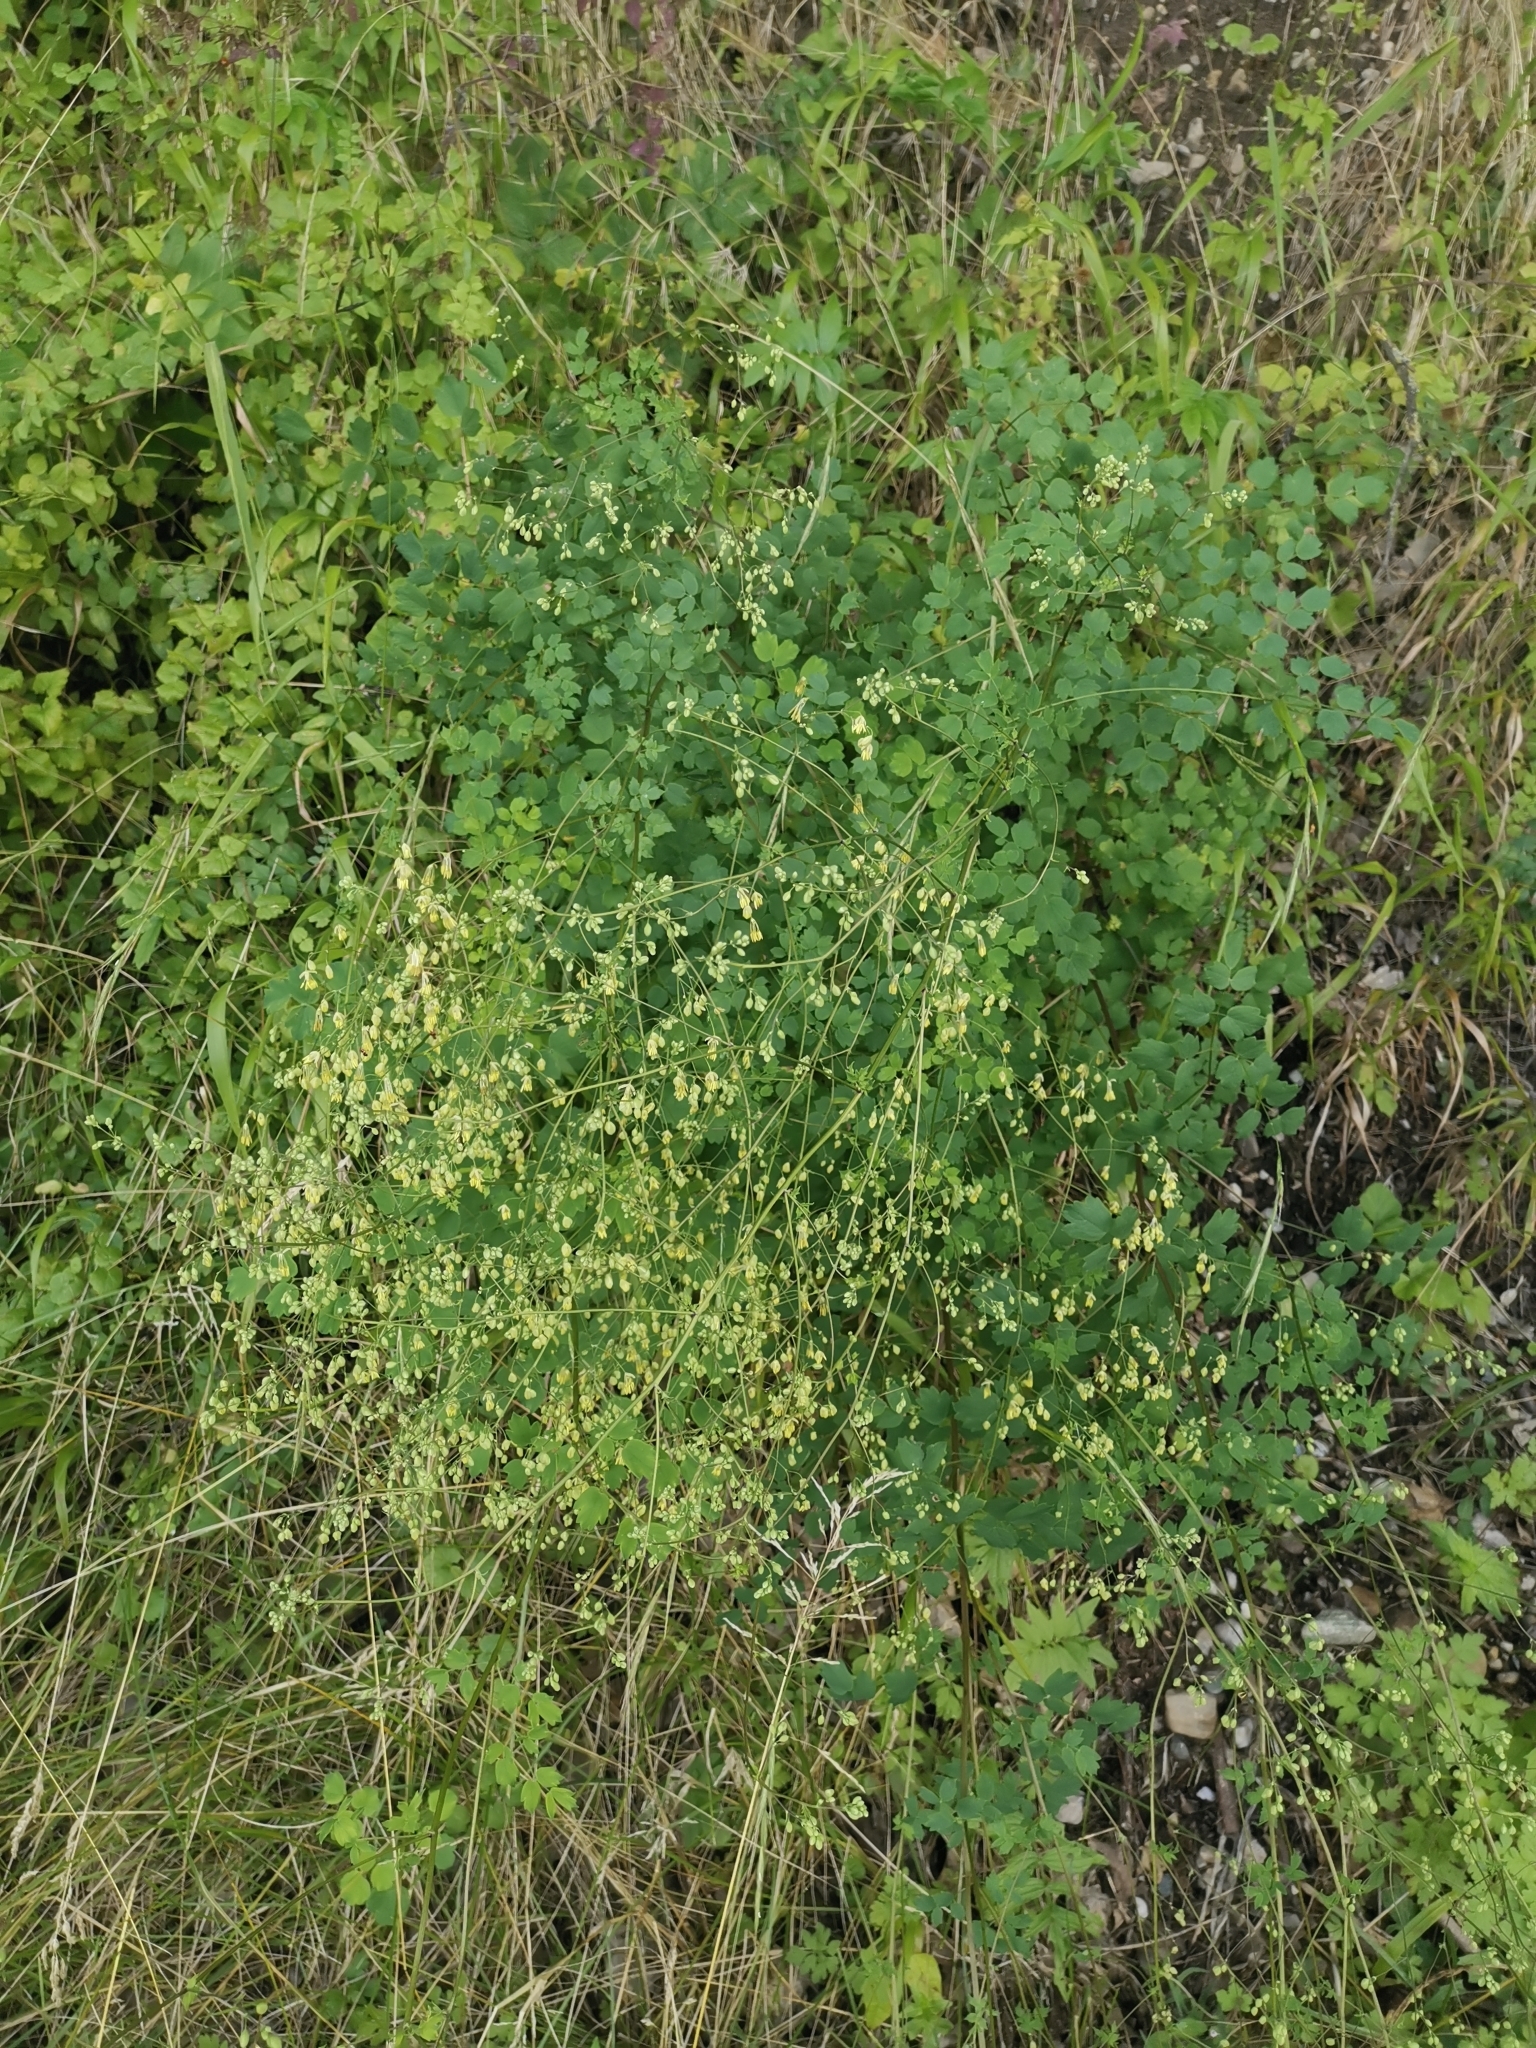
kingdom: Plantae
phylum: Tracheophyta
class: Magnoliopsida
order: Ranunculales
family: Ranunculaceae
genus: Thalictrum
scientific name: Thalictrum minus
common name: Lesser meadow-rue
